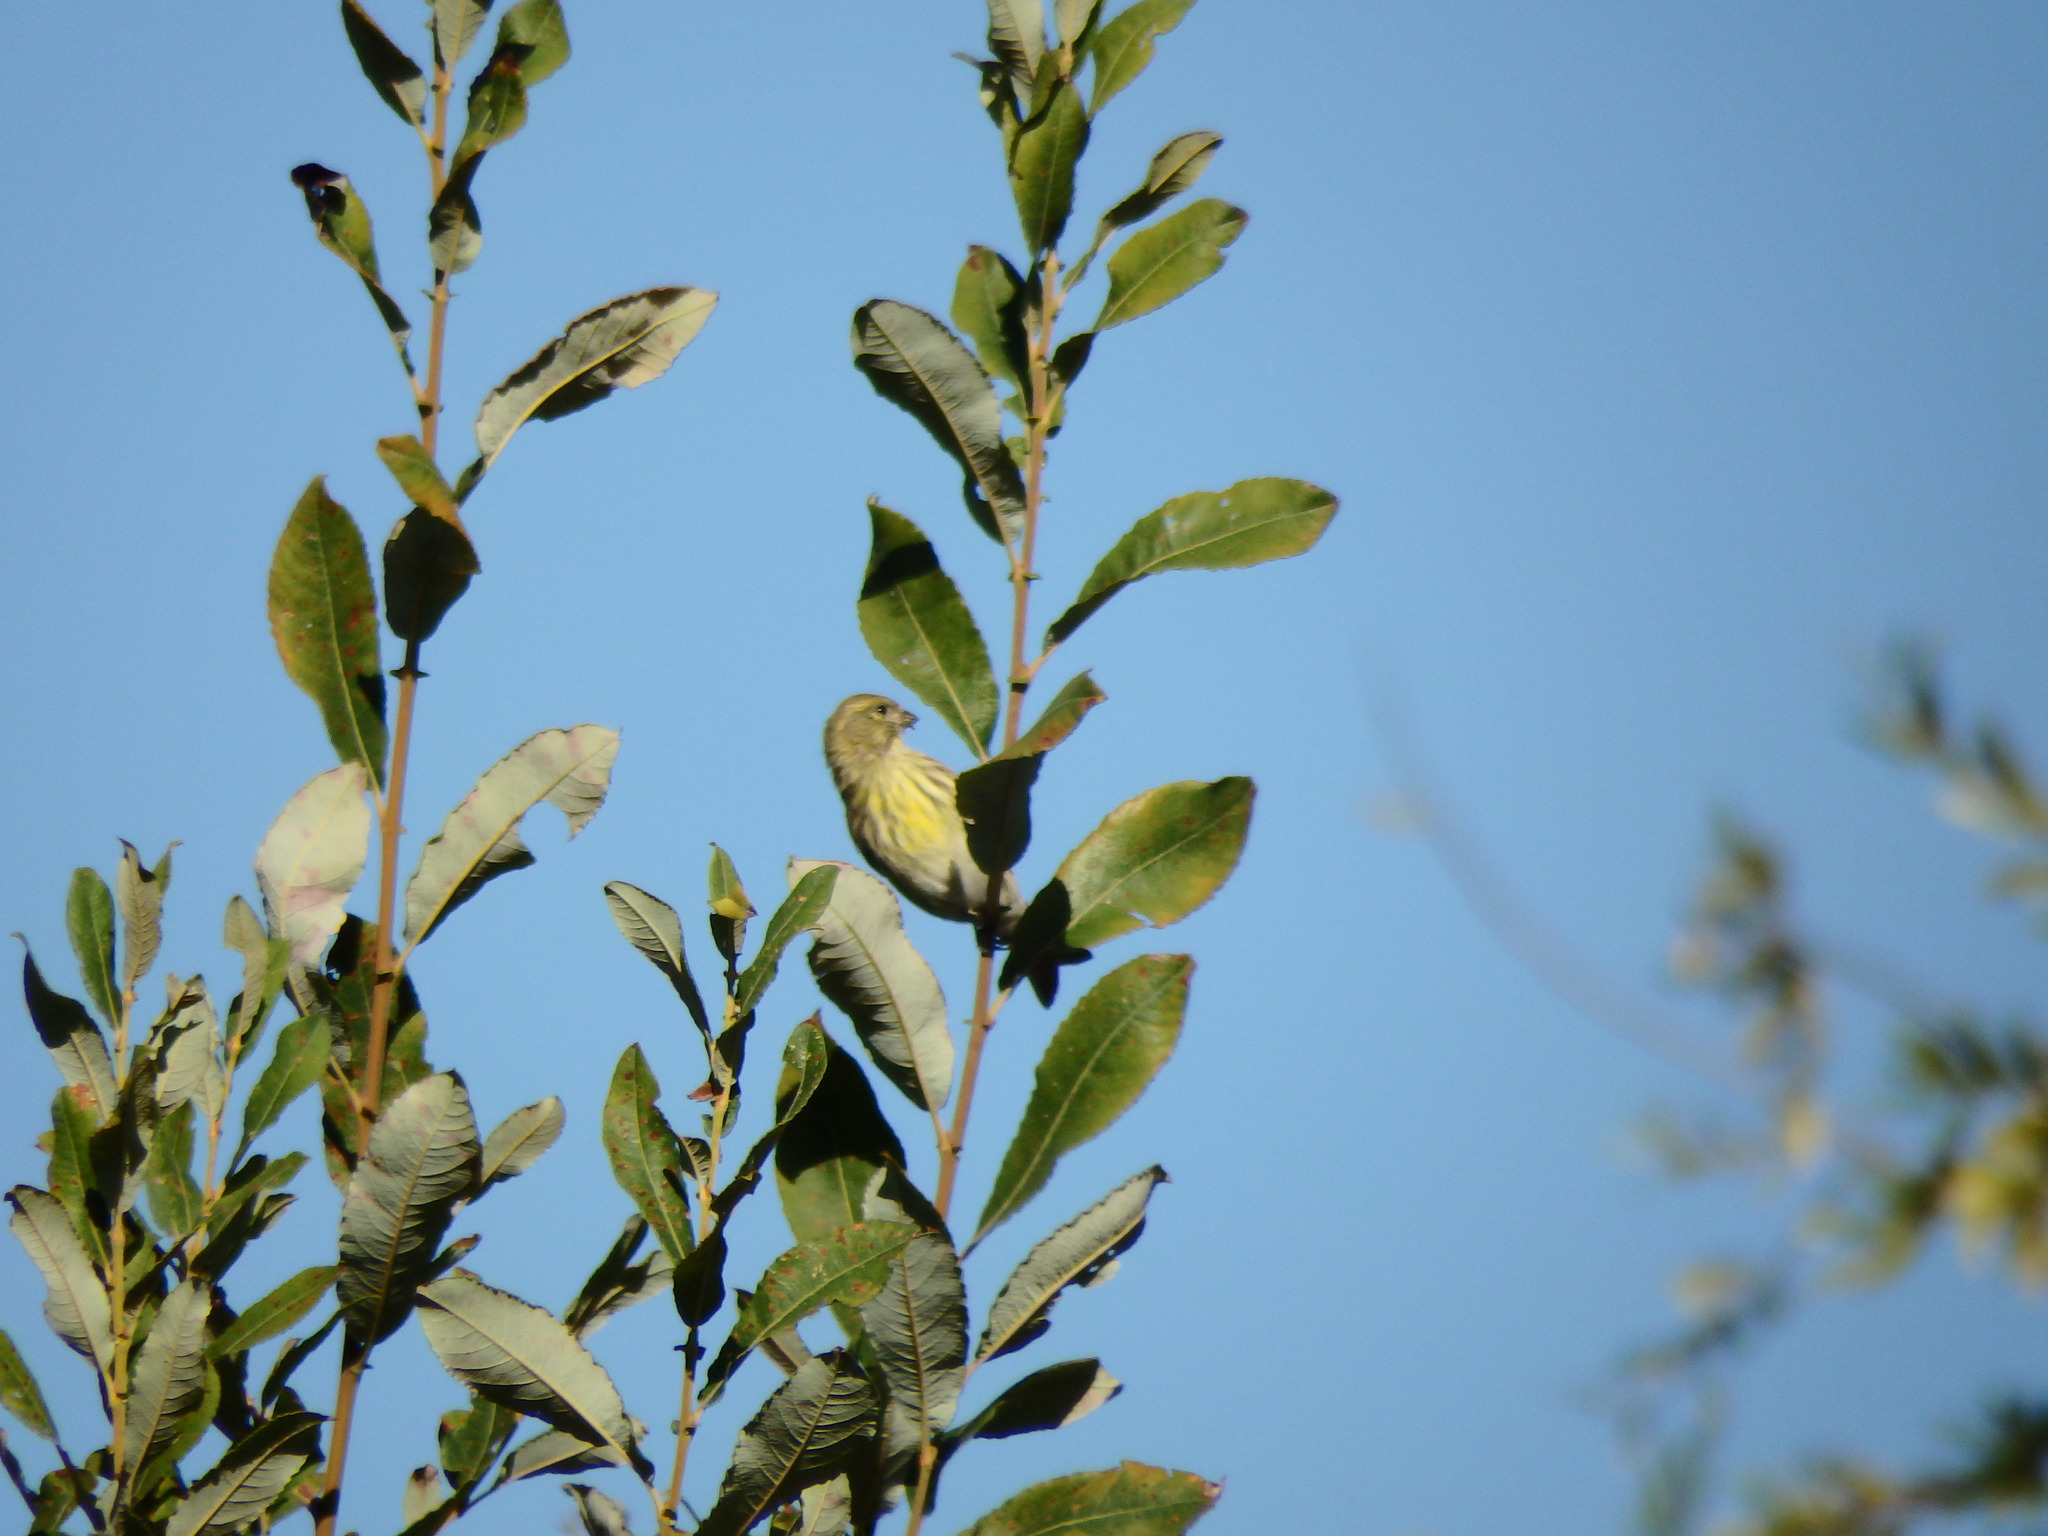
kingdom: Animalia
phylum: Chordata
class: Aves
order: Passeriformes
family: Fringillidae
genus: Serinus
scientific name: Serinus serinus
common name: European serin
